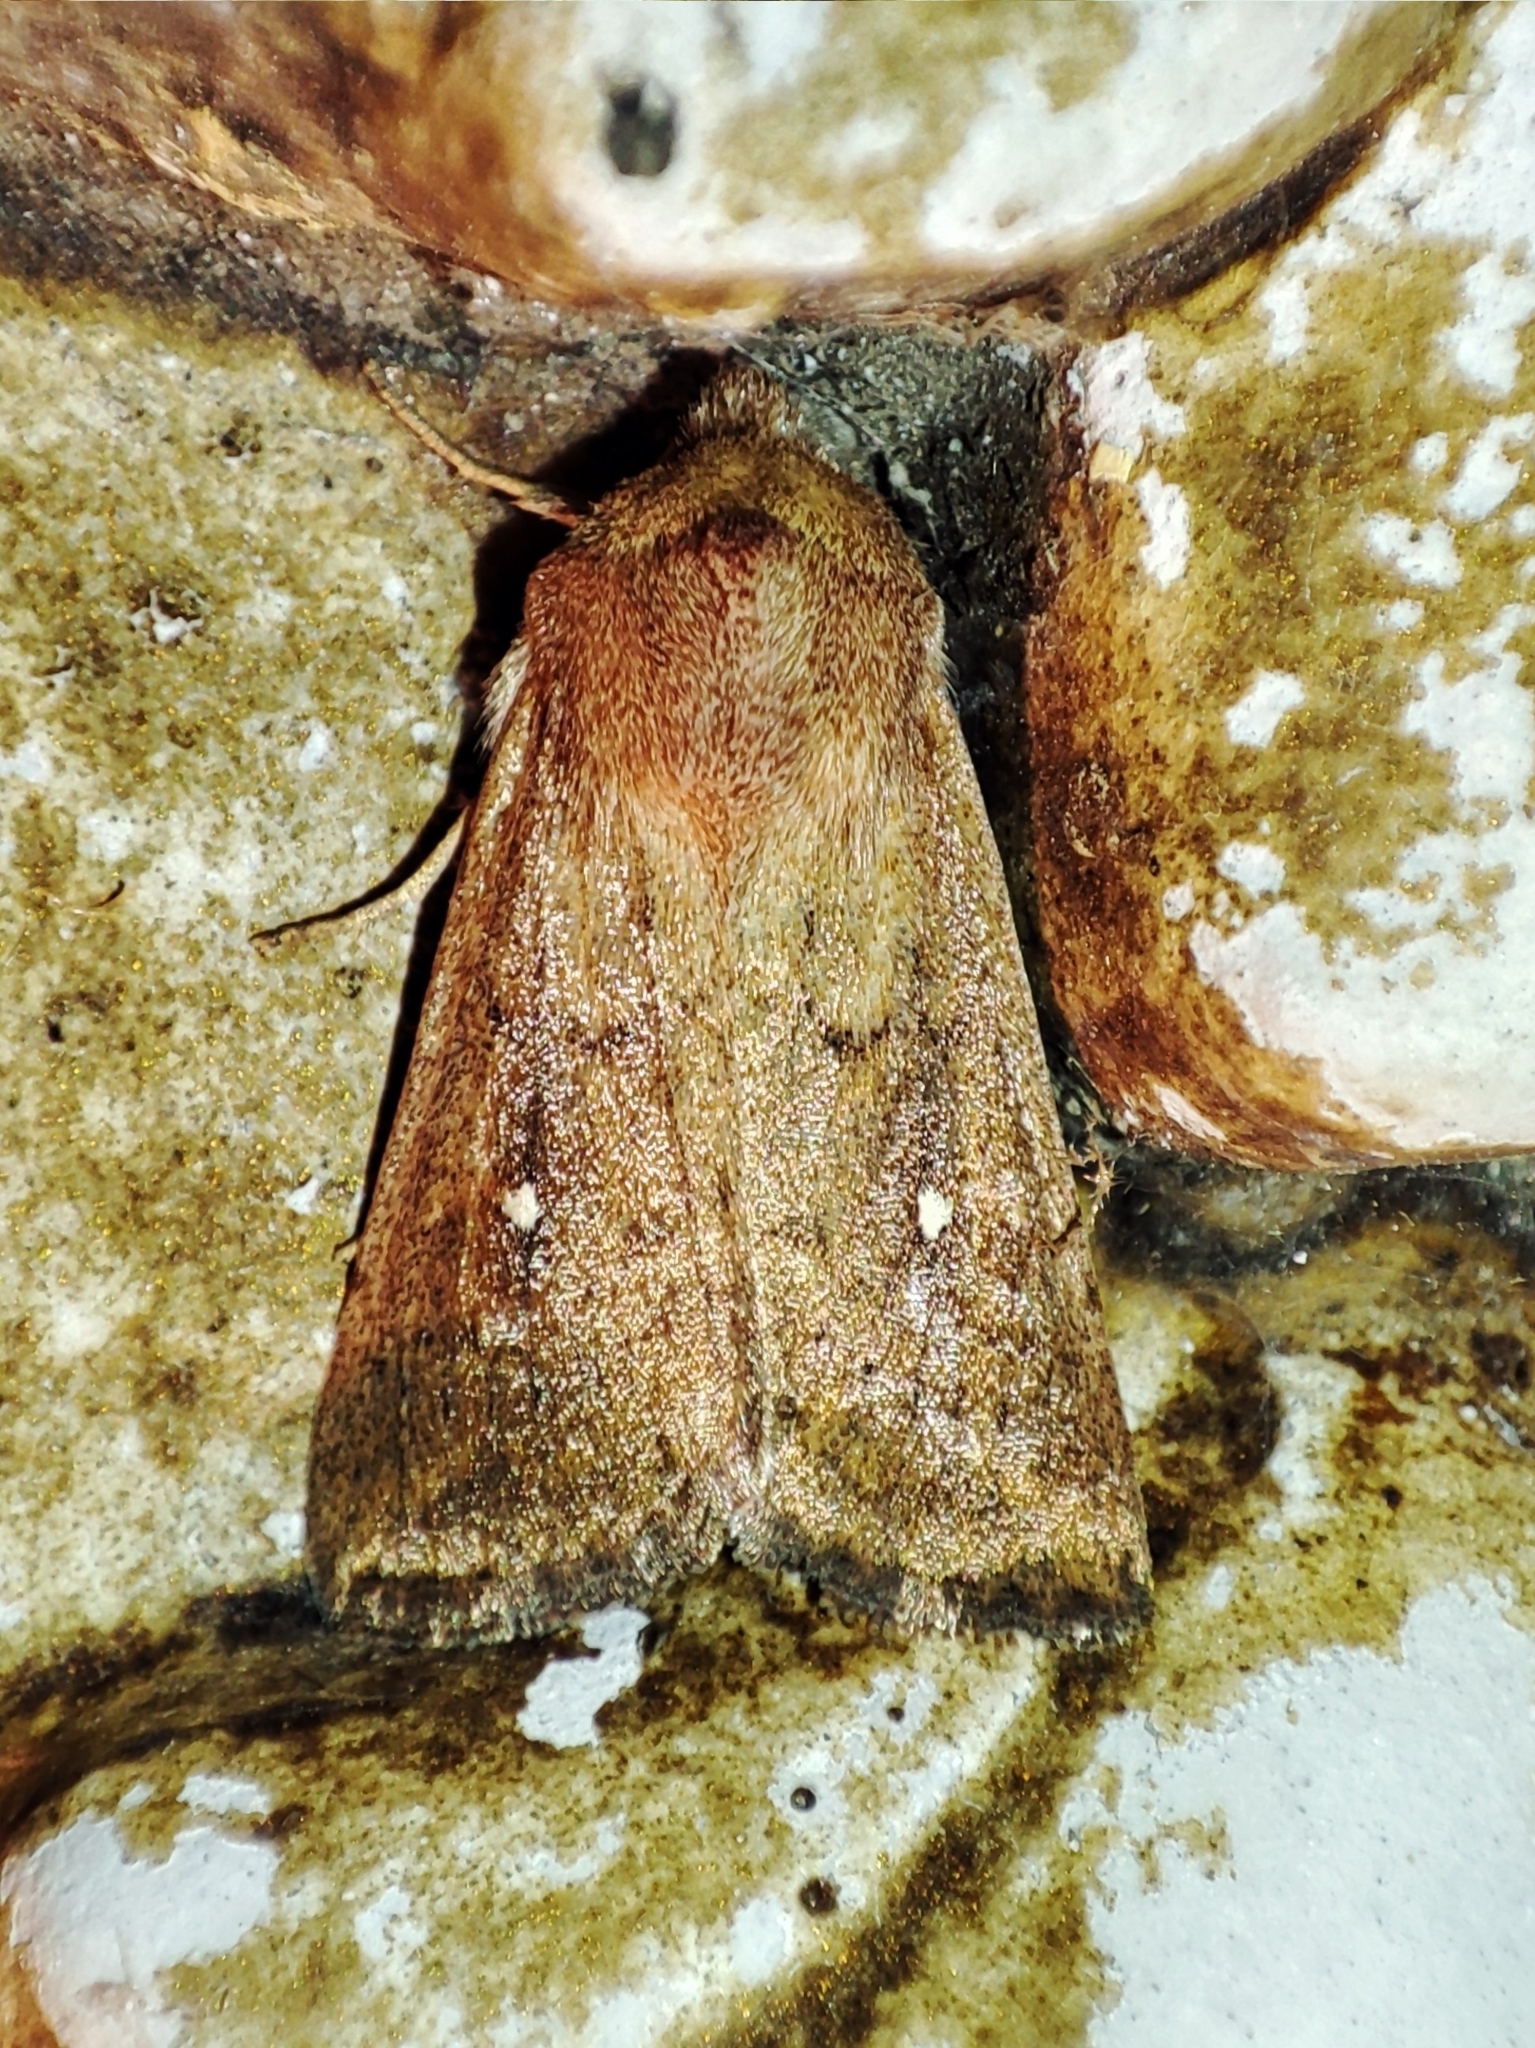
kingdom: Animalia
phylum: Arthropoda
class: Insecta
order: Lepidoptera
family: Noctuidae
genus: Mythimna
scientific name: Mythimna albipuncta
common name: White-point
